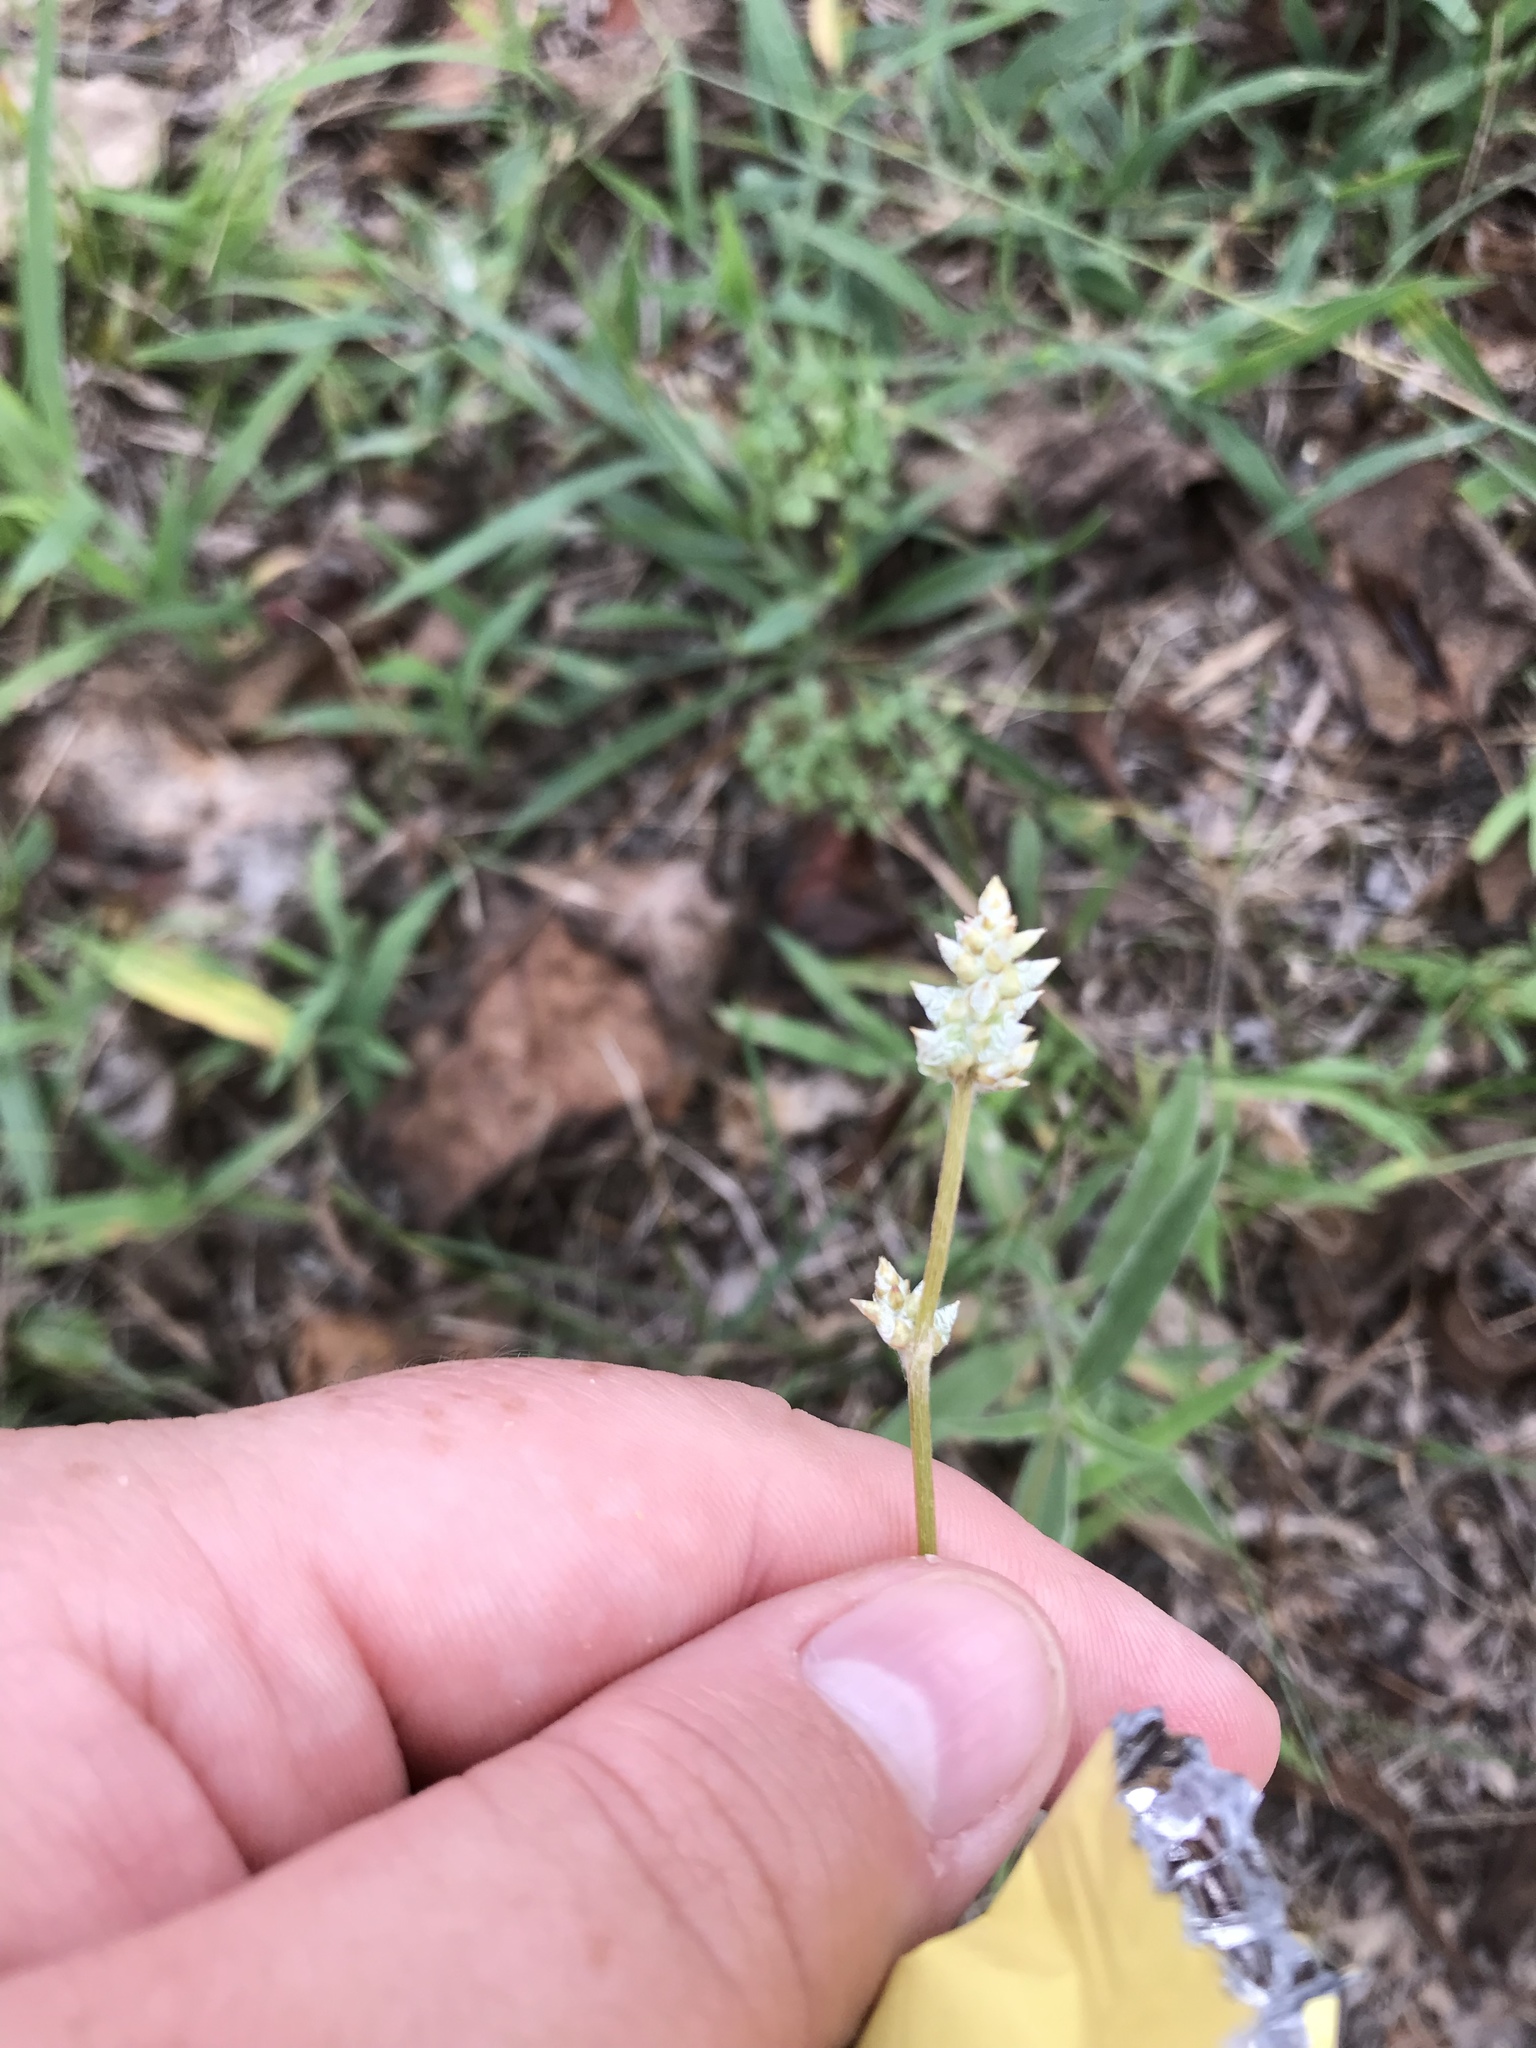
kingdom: Plantae
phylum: Tracheophyta
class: Magnoliopsida
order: Caryophyllales
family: Amaranthaceae
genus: Froelichia
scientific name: Froelichia gracilis
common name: Slender cottonweed
